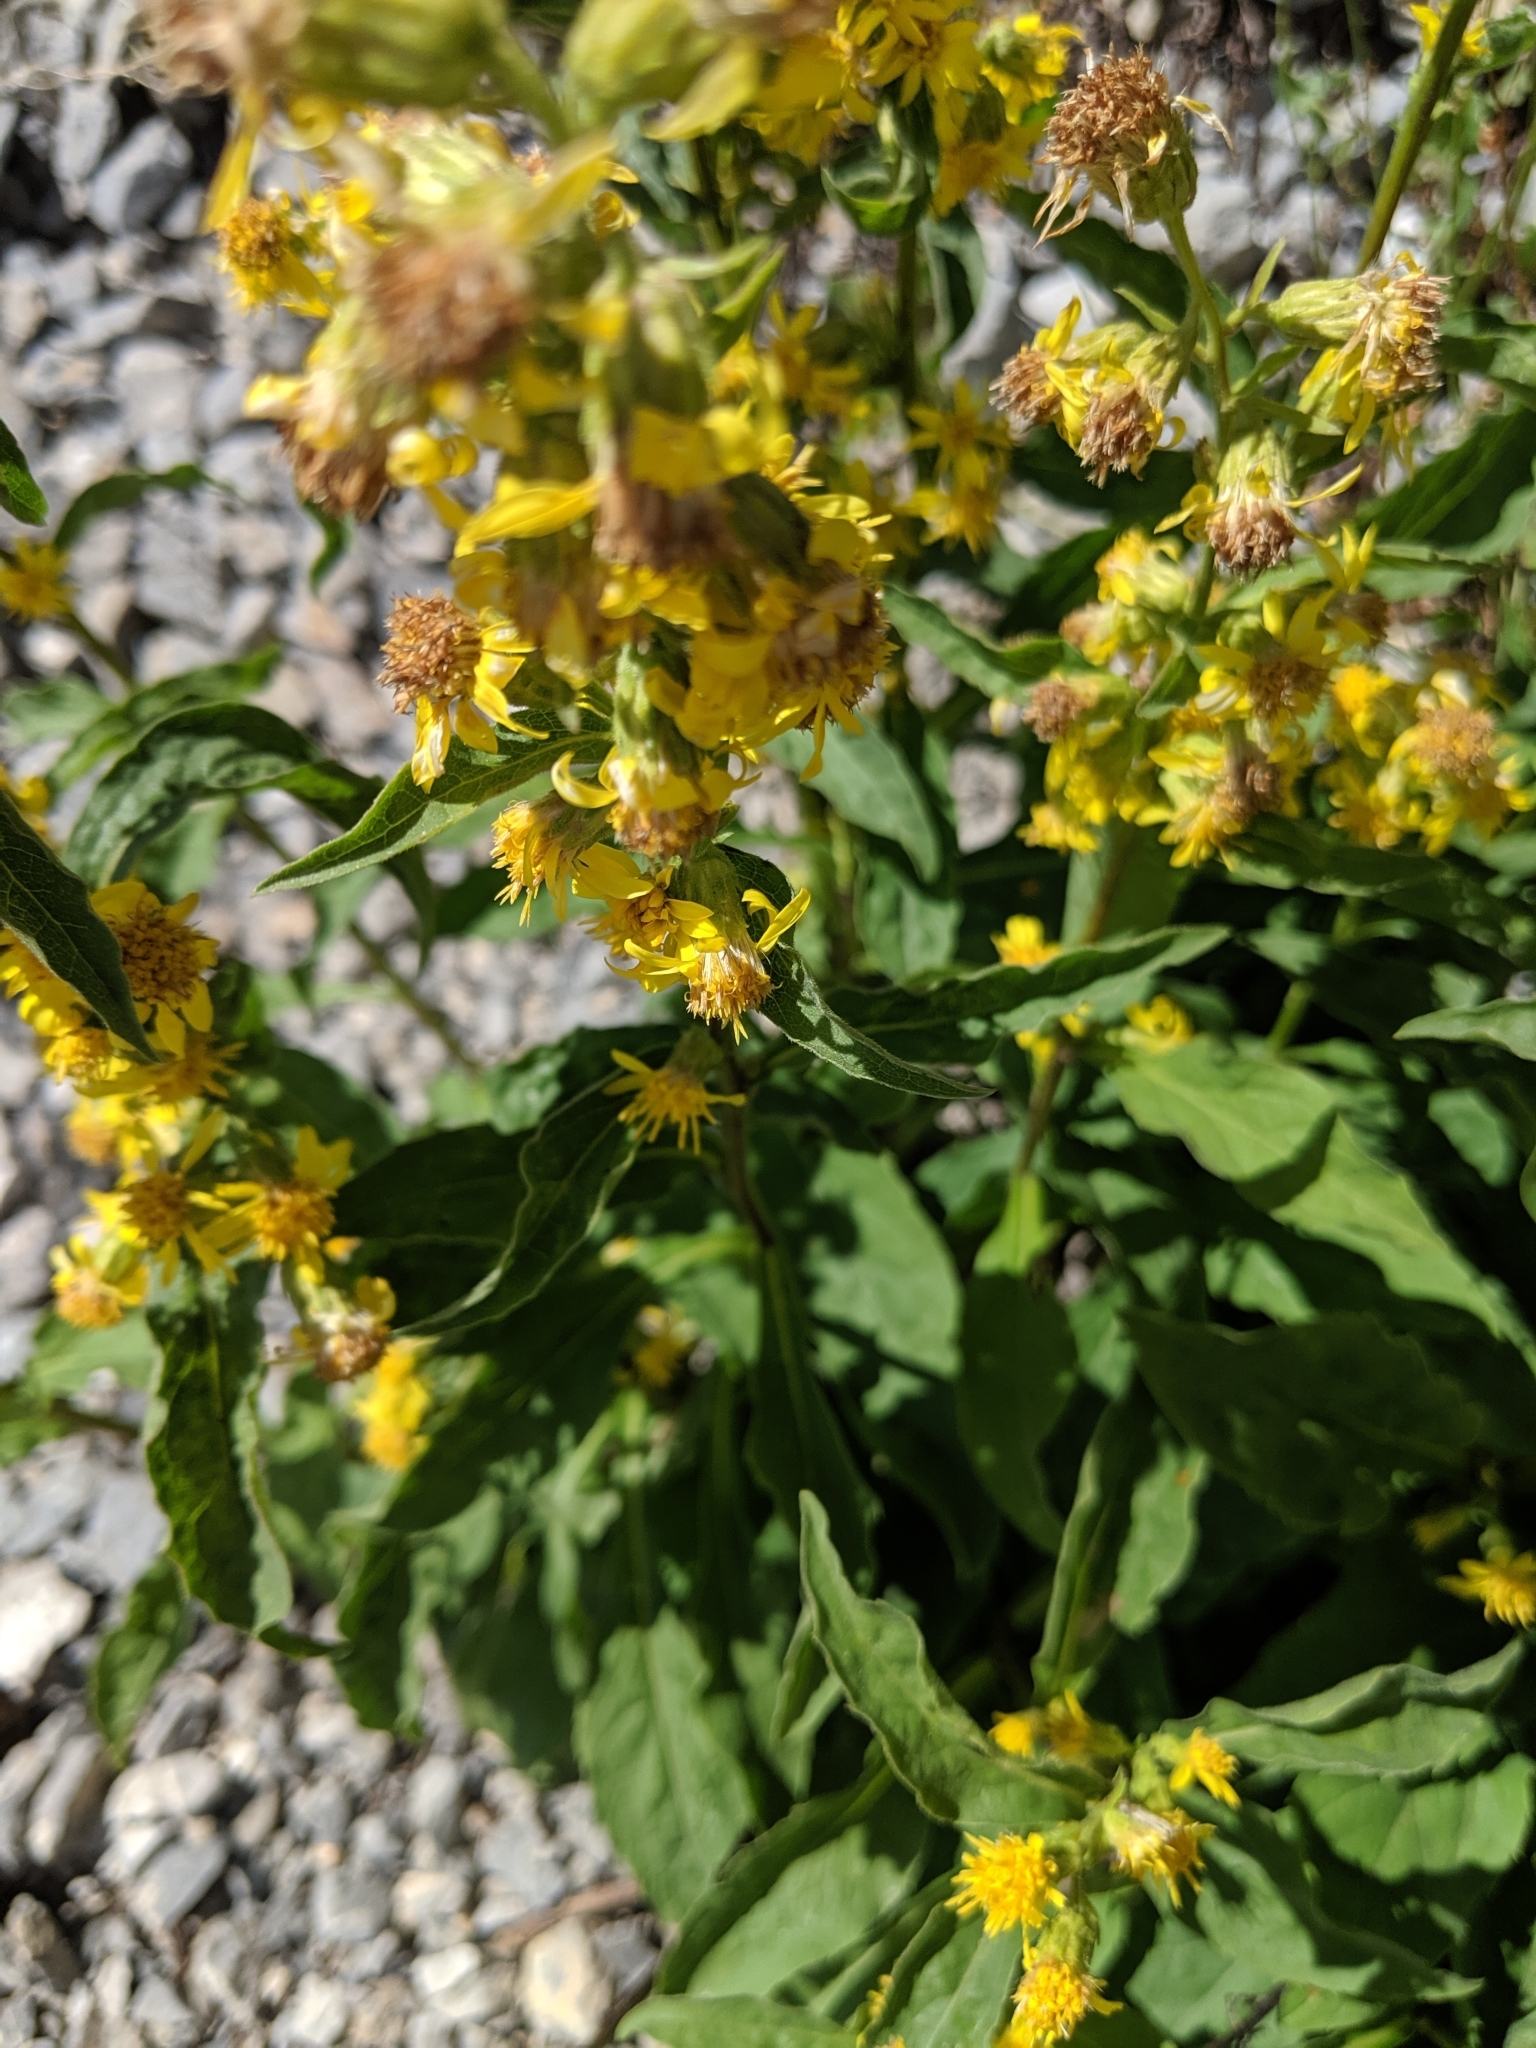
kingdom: Plantae
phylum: Tracheophyta
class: Magnoliopsida
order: Asterales
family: Asteraceae
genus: Solidago
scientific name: Solidago virgaurea
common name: Goldenrod
